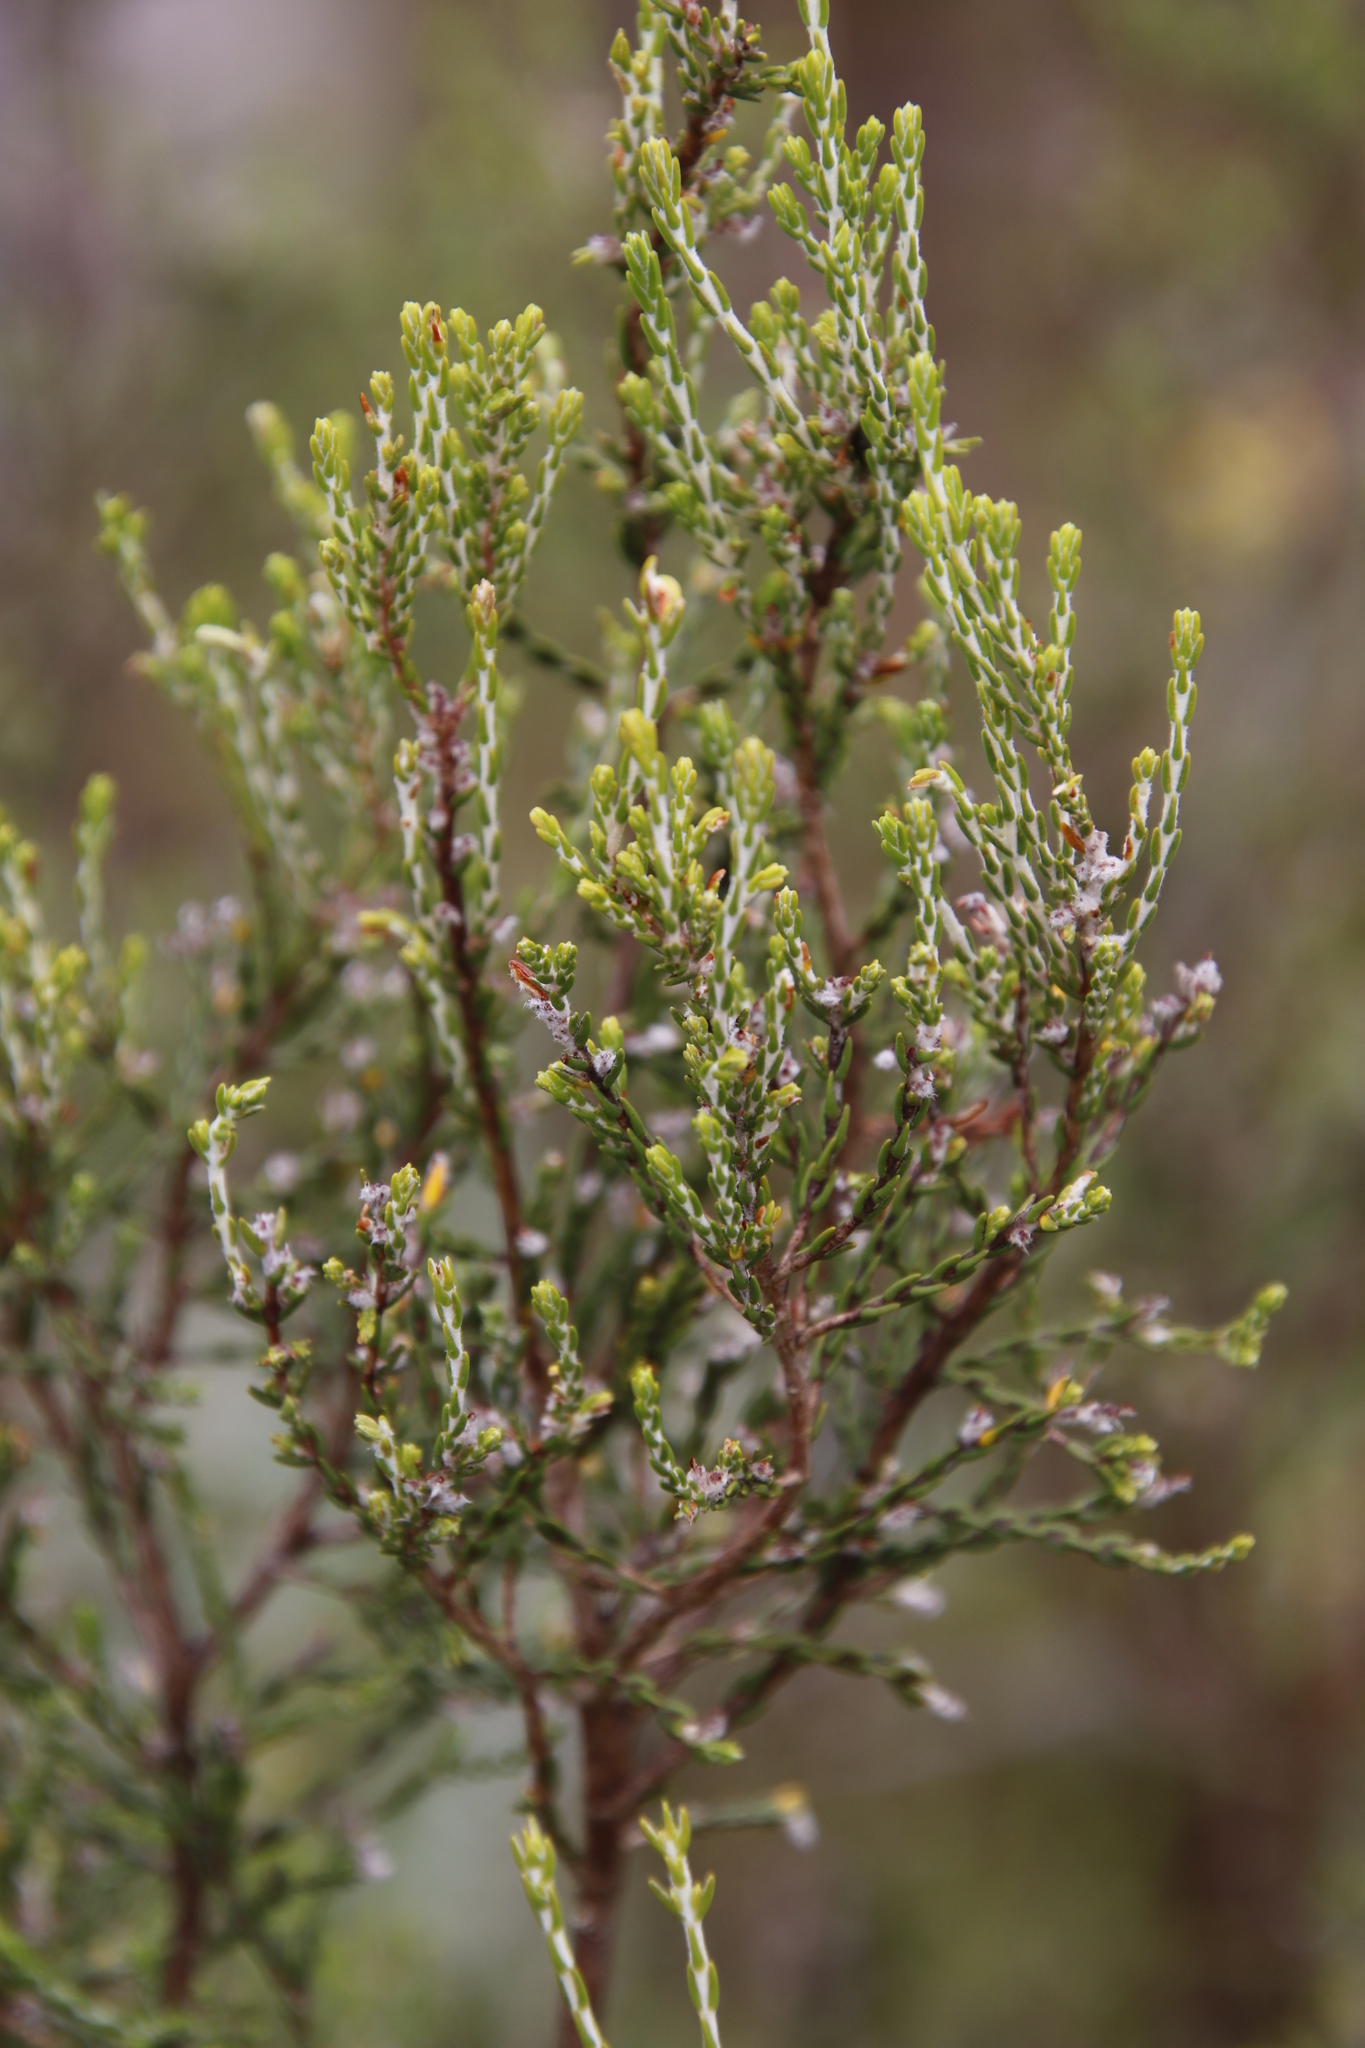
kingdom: Plantae
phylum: Tracheophyta
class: Magnoliopsida
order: Malvales
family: Thymelaeaceae
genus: Passerina
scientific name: Passerina montana
